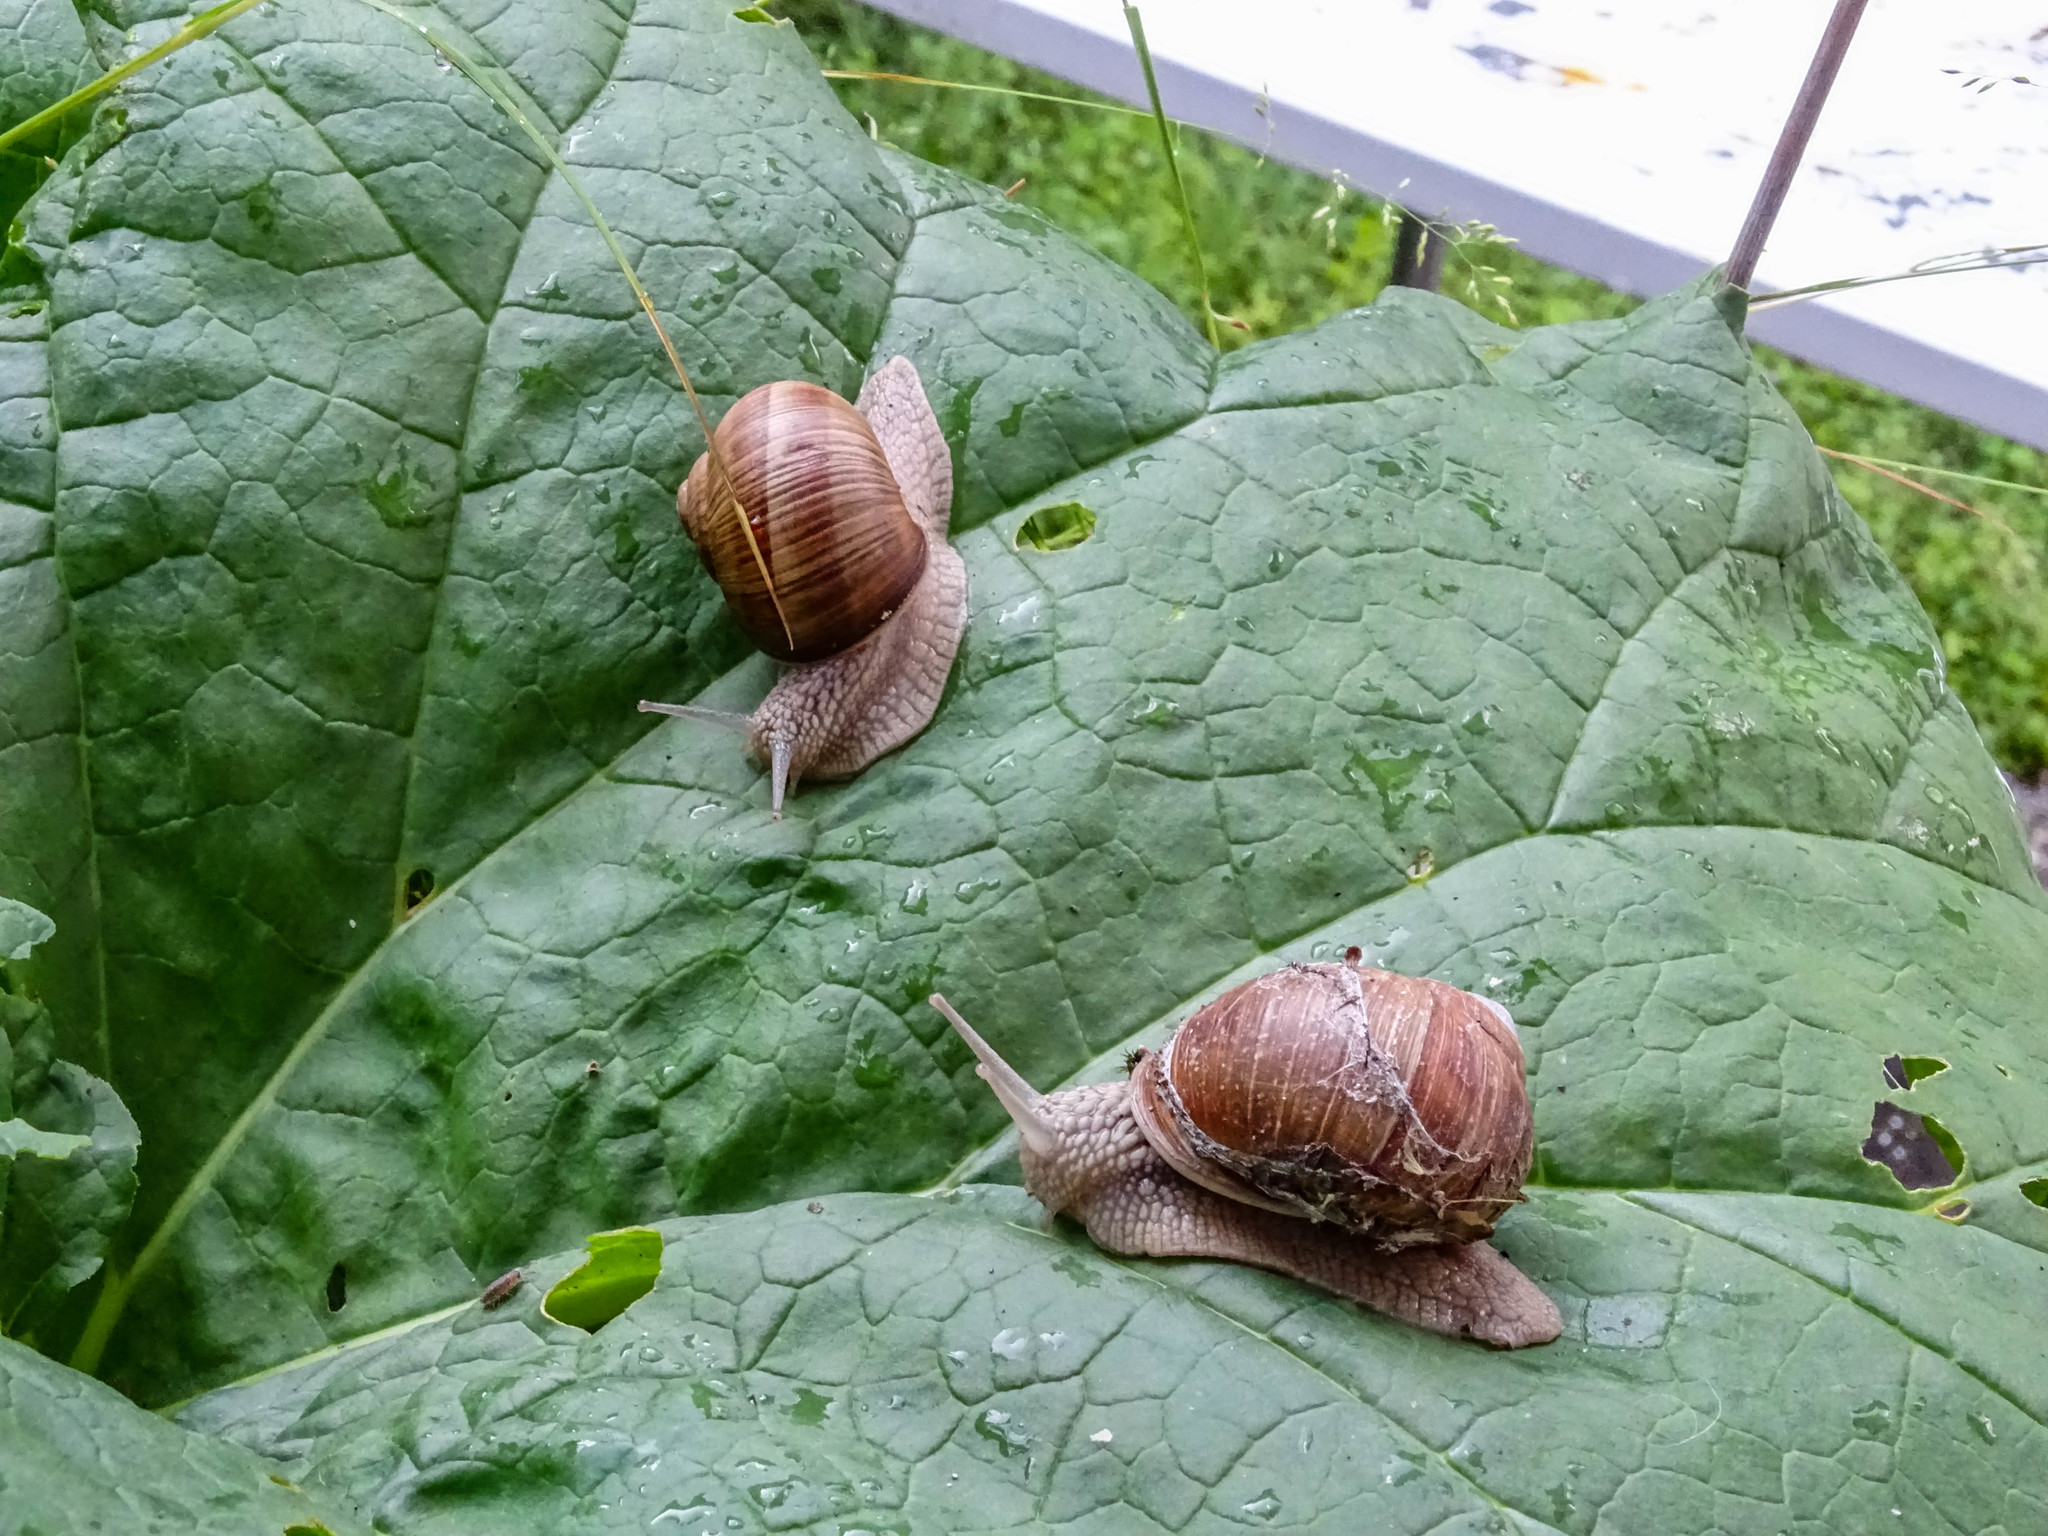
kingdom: Animalia
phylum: Mollusca
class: Gastropoda
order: Stylommatophora
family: Helicidae
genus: Helix
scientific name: Helix pomatia
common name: Roman snail
